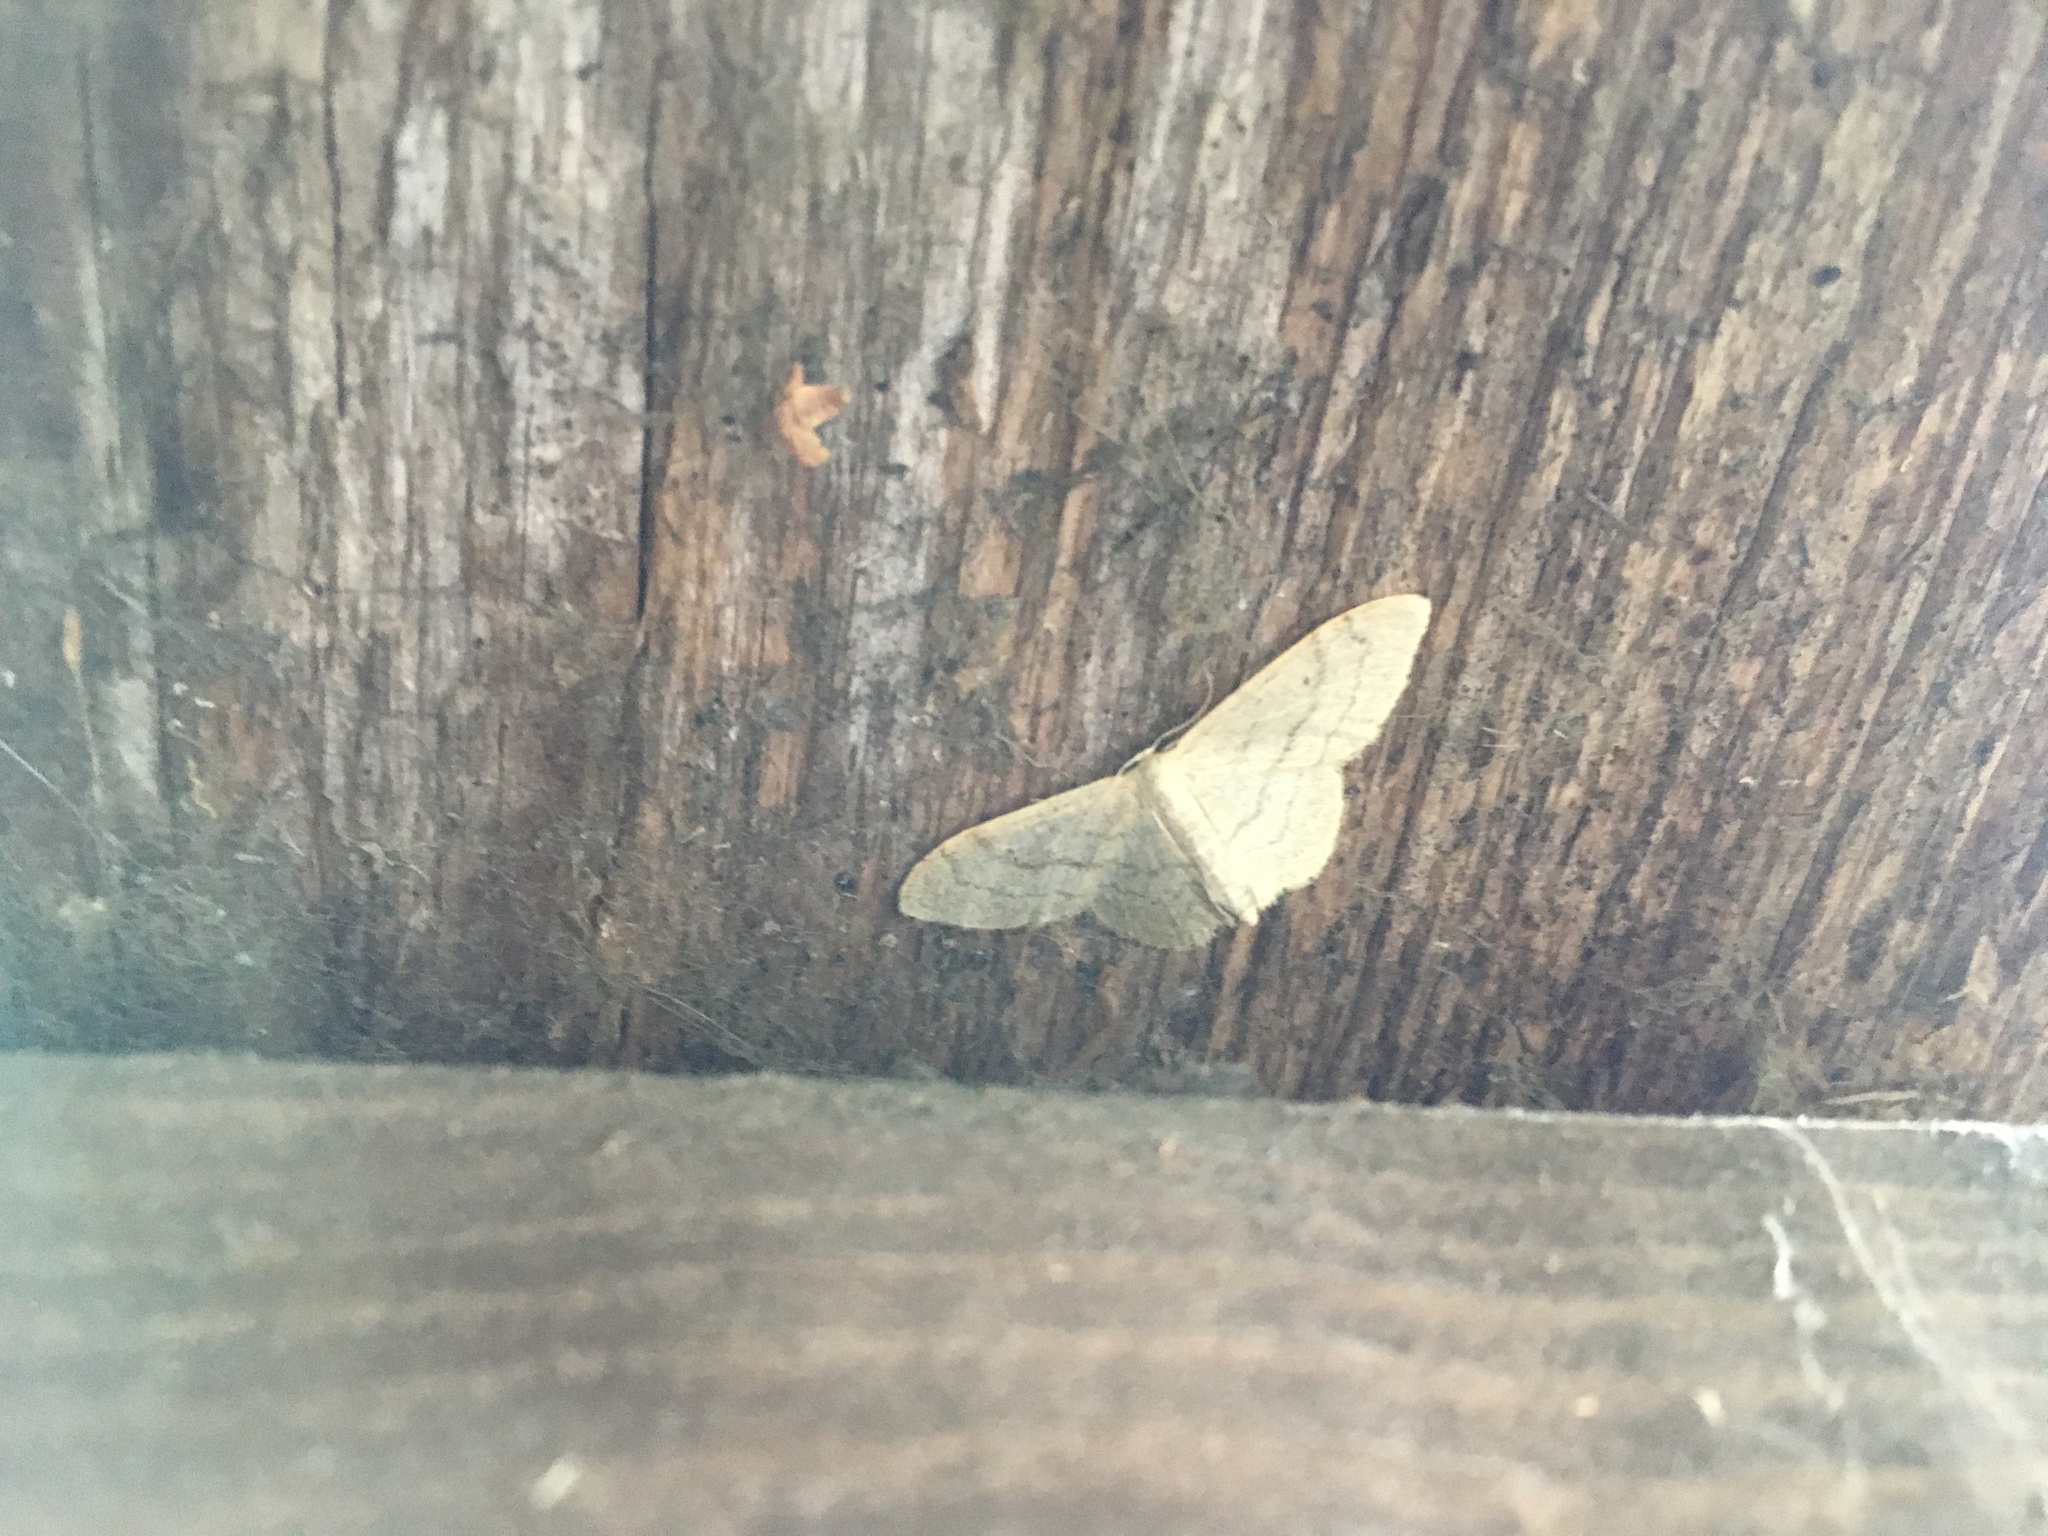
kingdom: Animalia
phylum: Arthropoda
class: Insecta
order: Lepidoptera
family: Geometridae
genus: Idaea
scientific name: Idaea aversata
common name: Riband wave
